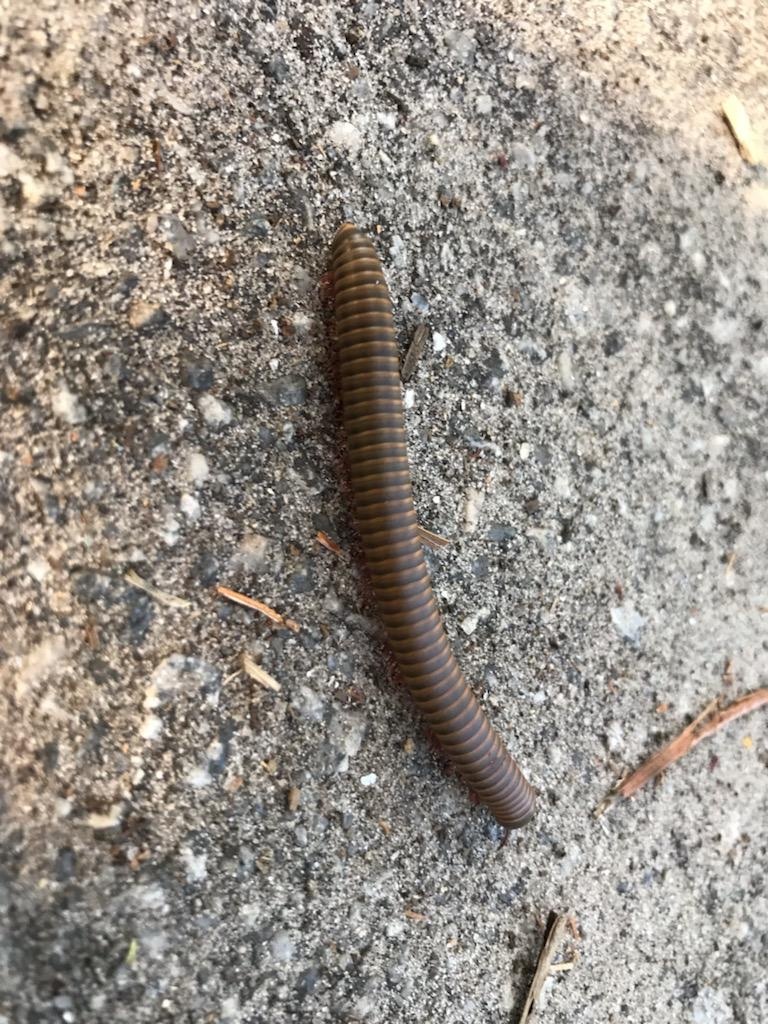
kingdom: Animalia
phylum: Arthropoda
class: Diplopoda
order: Spirobolida
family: Spirobolidae
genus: Narceus
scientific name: Narceus
